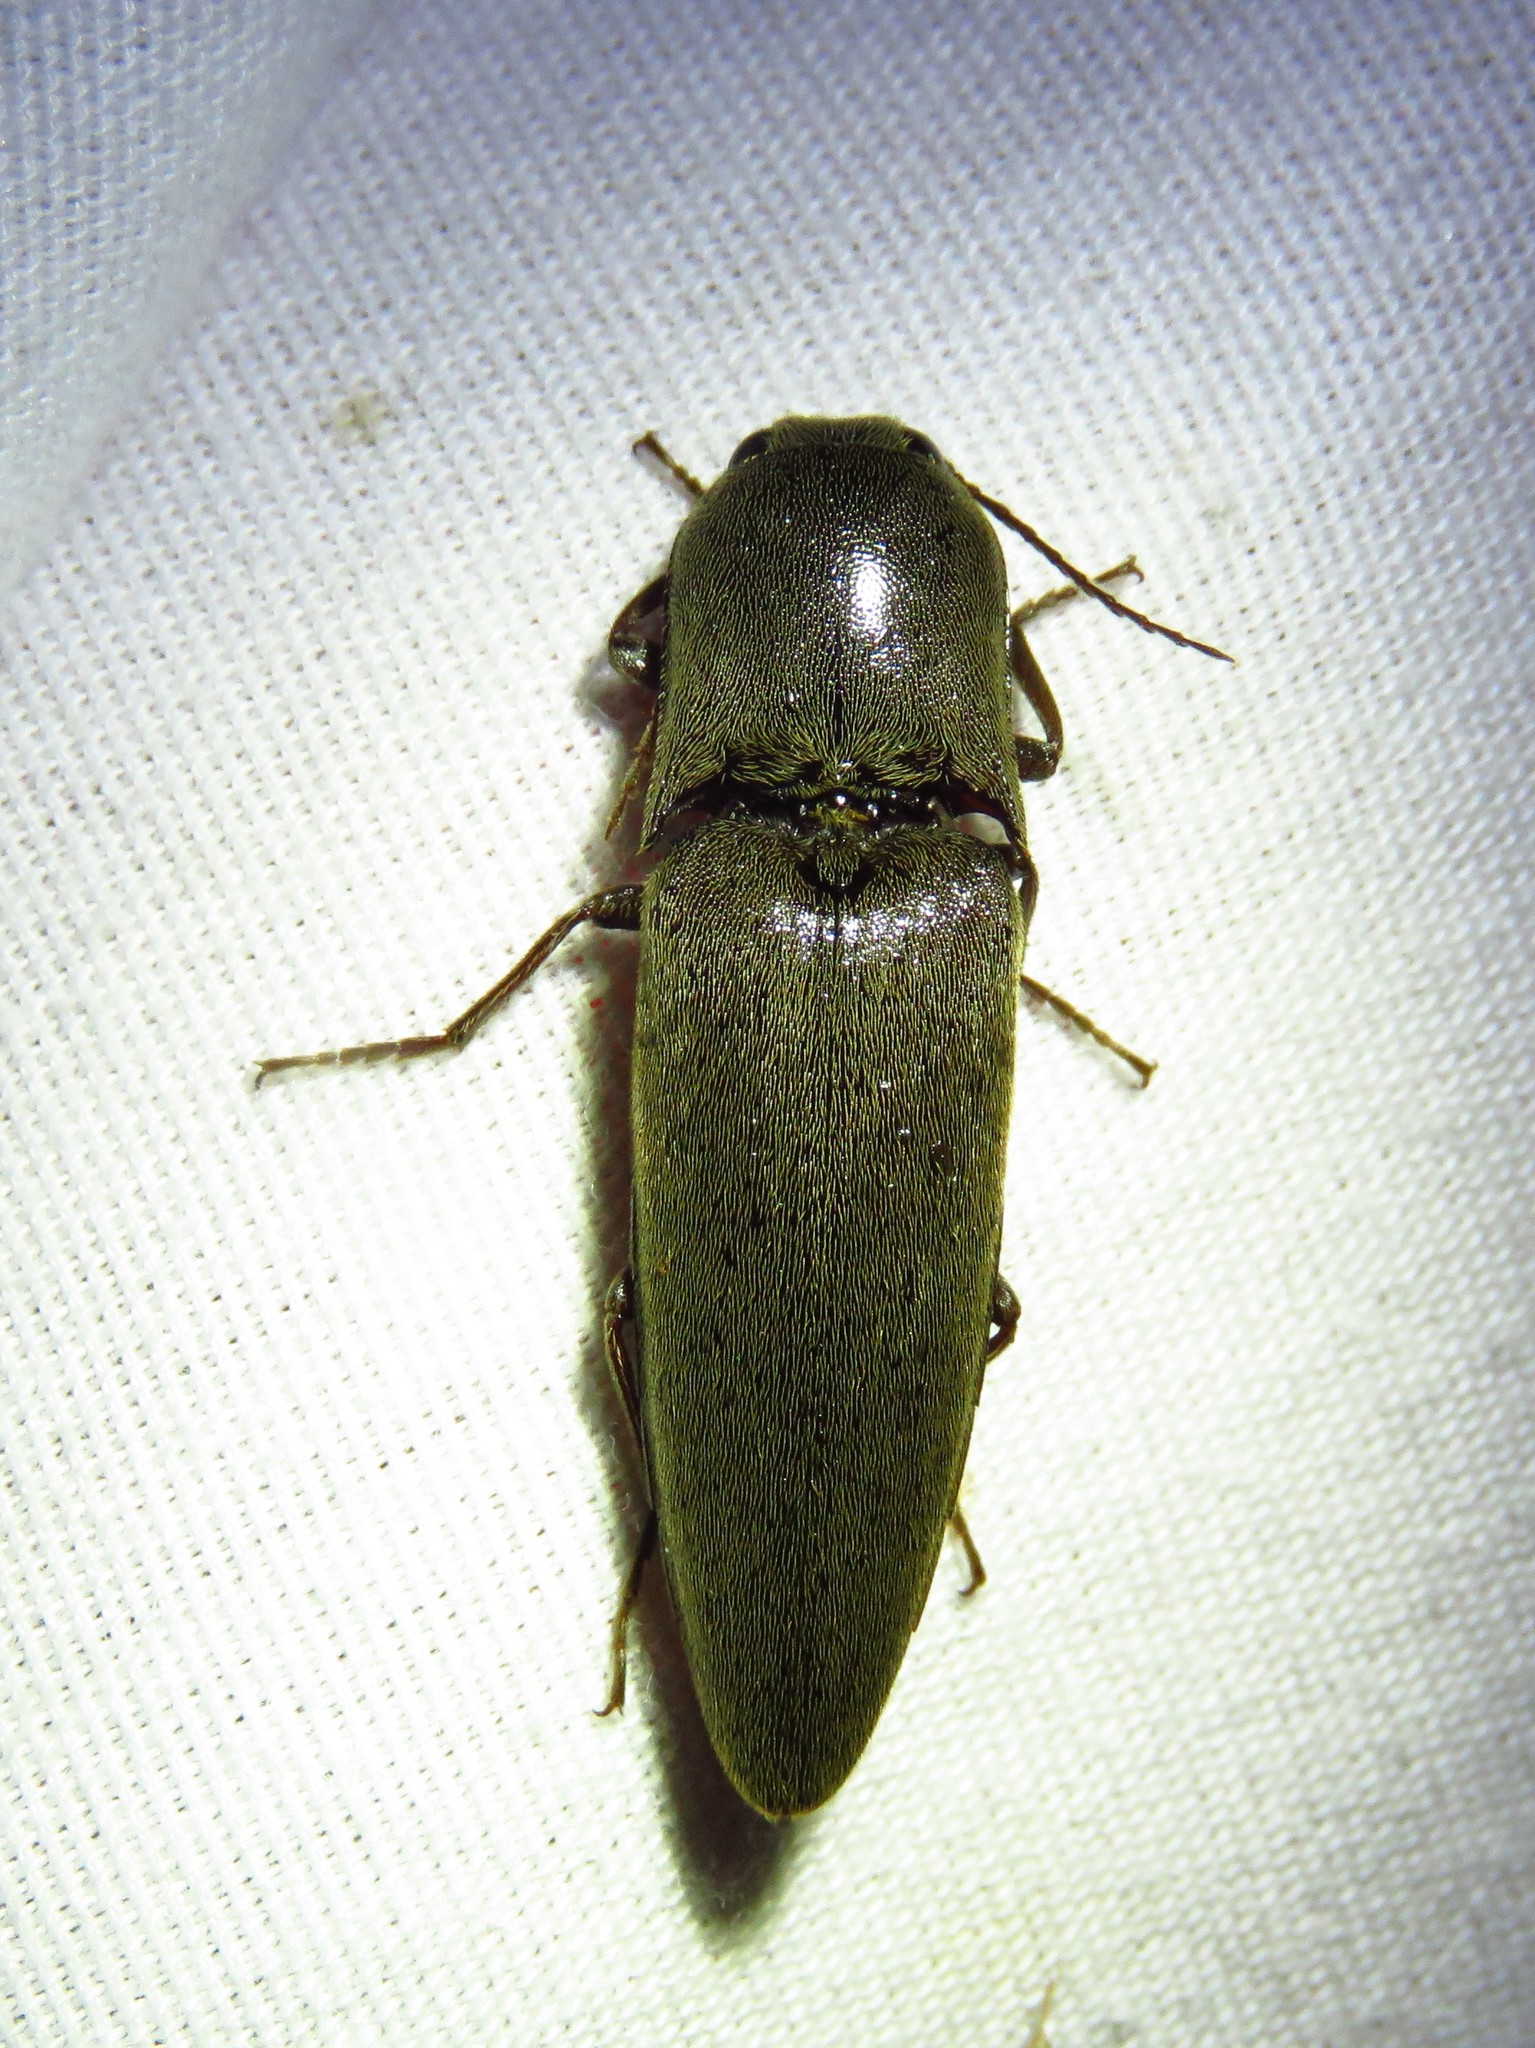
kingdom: Animalia
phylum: Arthropoda
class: Insecta
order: Coleoptera
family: Elateridae
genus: Orthostethus
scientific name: Orthostethus infuscatus
